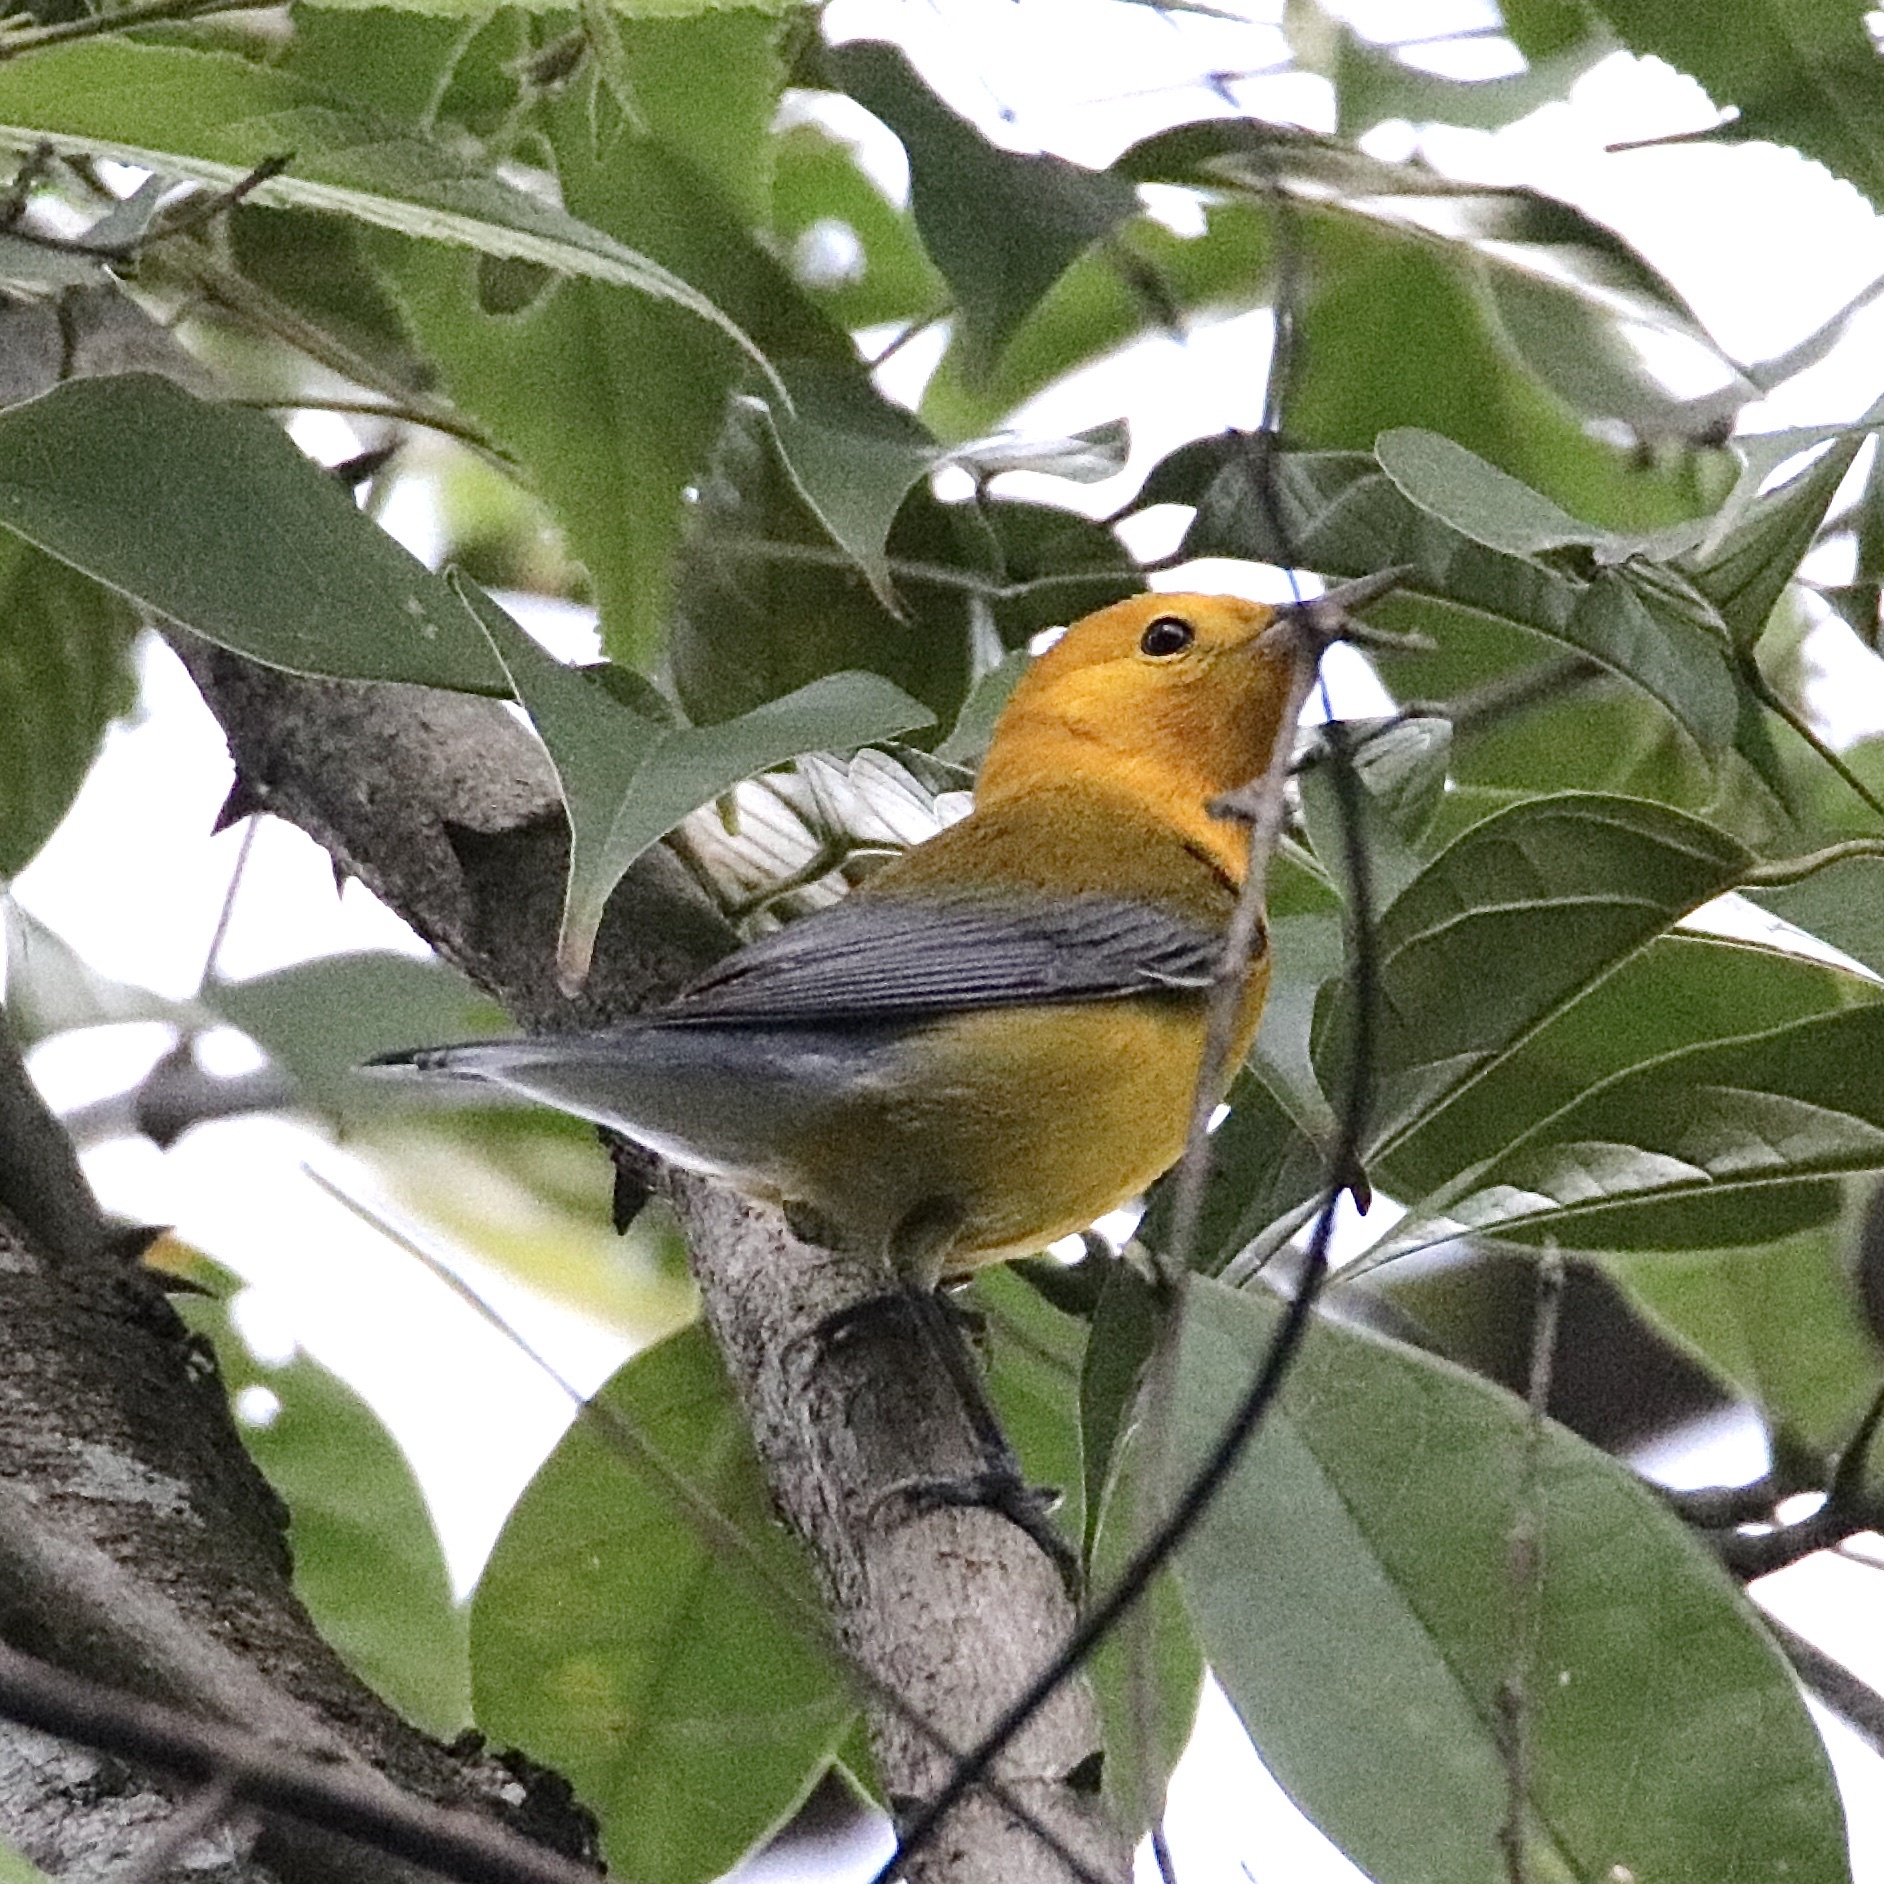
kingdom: Animalia
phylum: Chordata
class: Aves
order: Passeriformes
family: Parulidae
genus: Protonotaria
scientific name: Protonotaria citrea
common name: Prothonotary warbler
